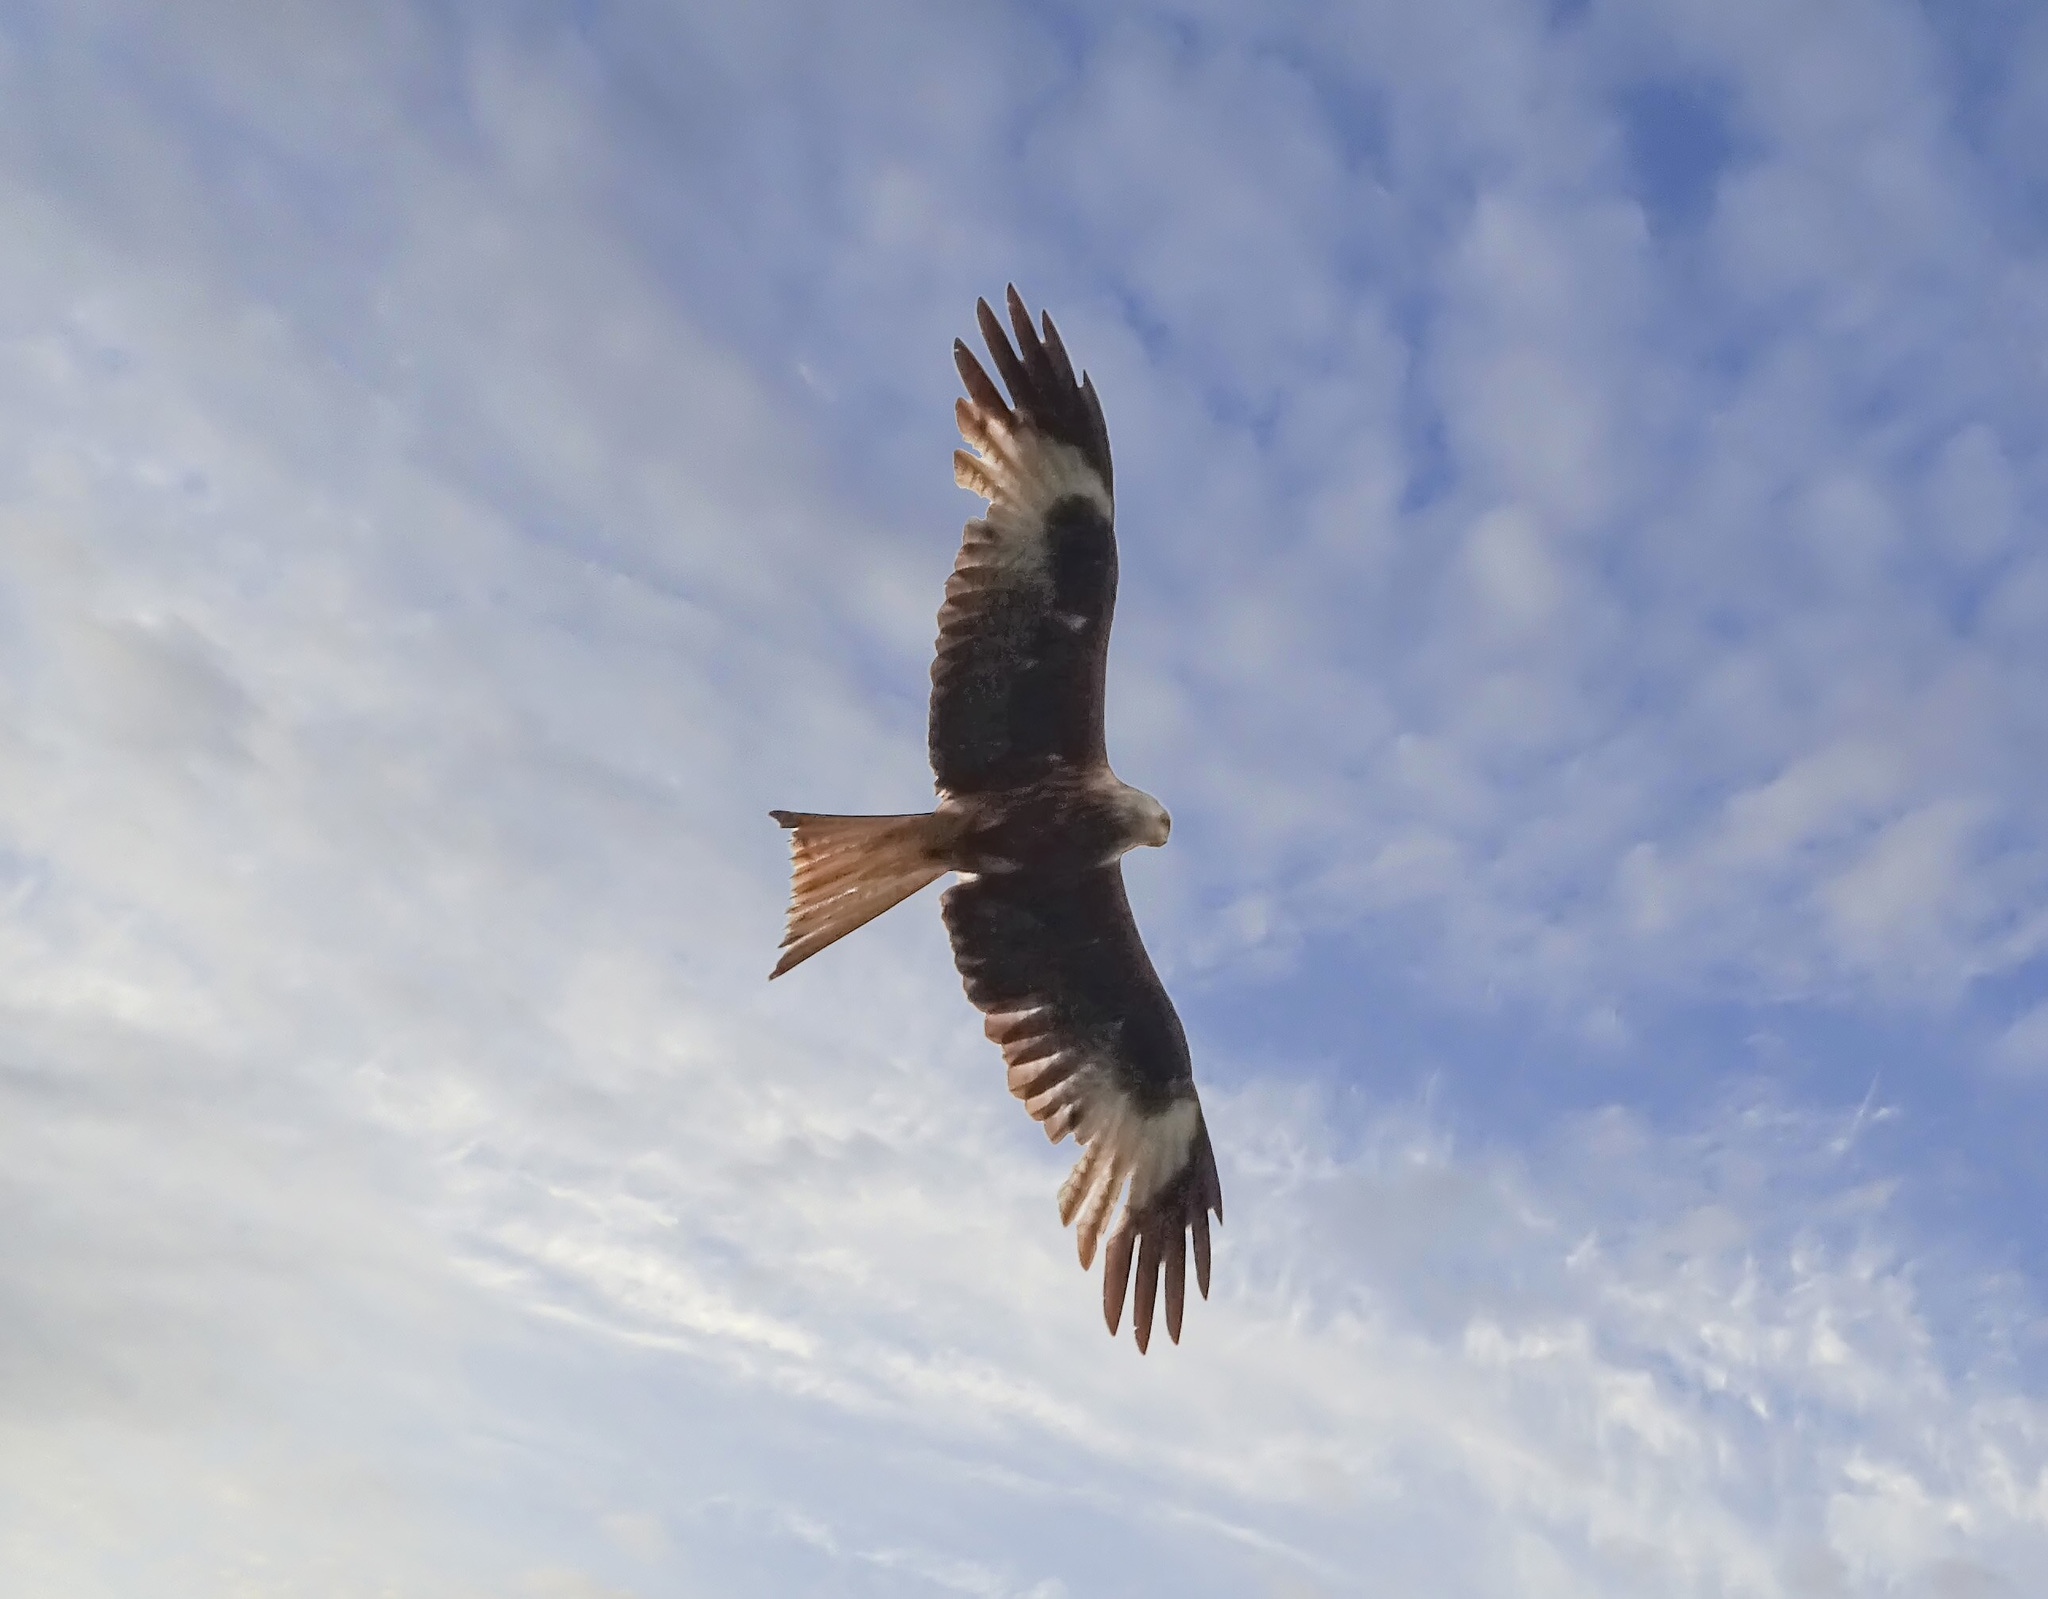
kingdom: Animalia
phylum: Chordata
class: Aves
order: Accipitriformes
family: Accipitridae
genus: Milvus
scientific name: Milvus milvus
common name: Red kite
